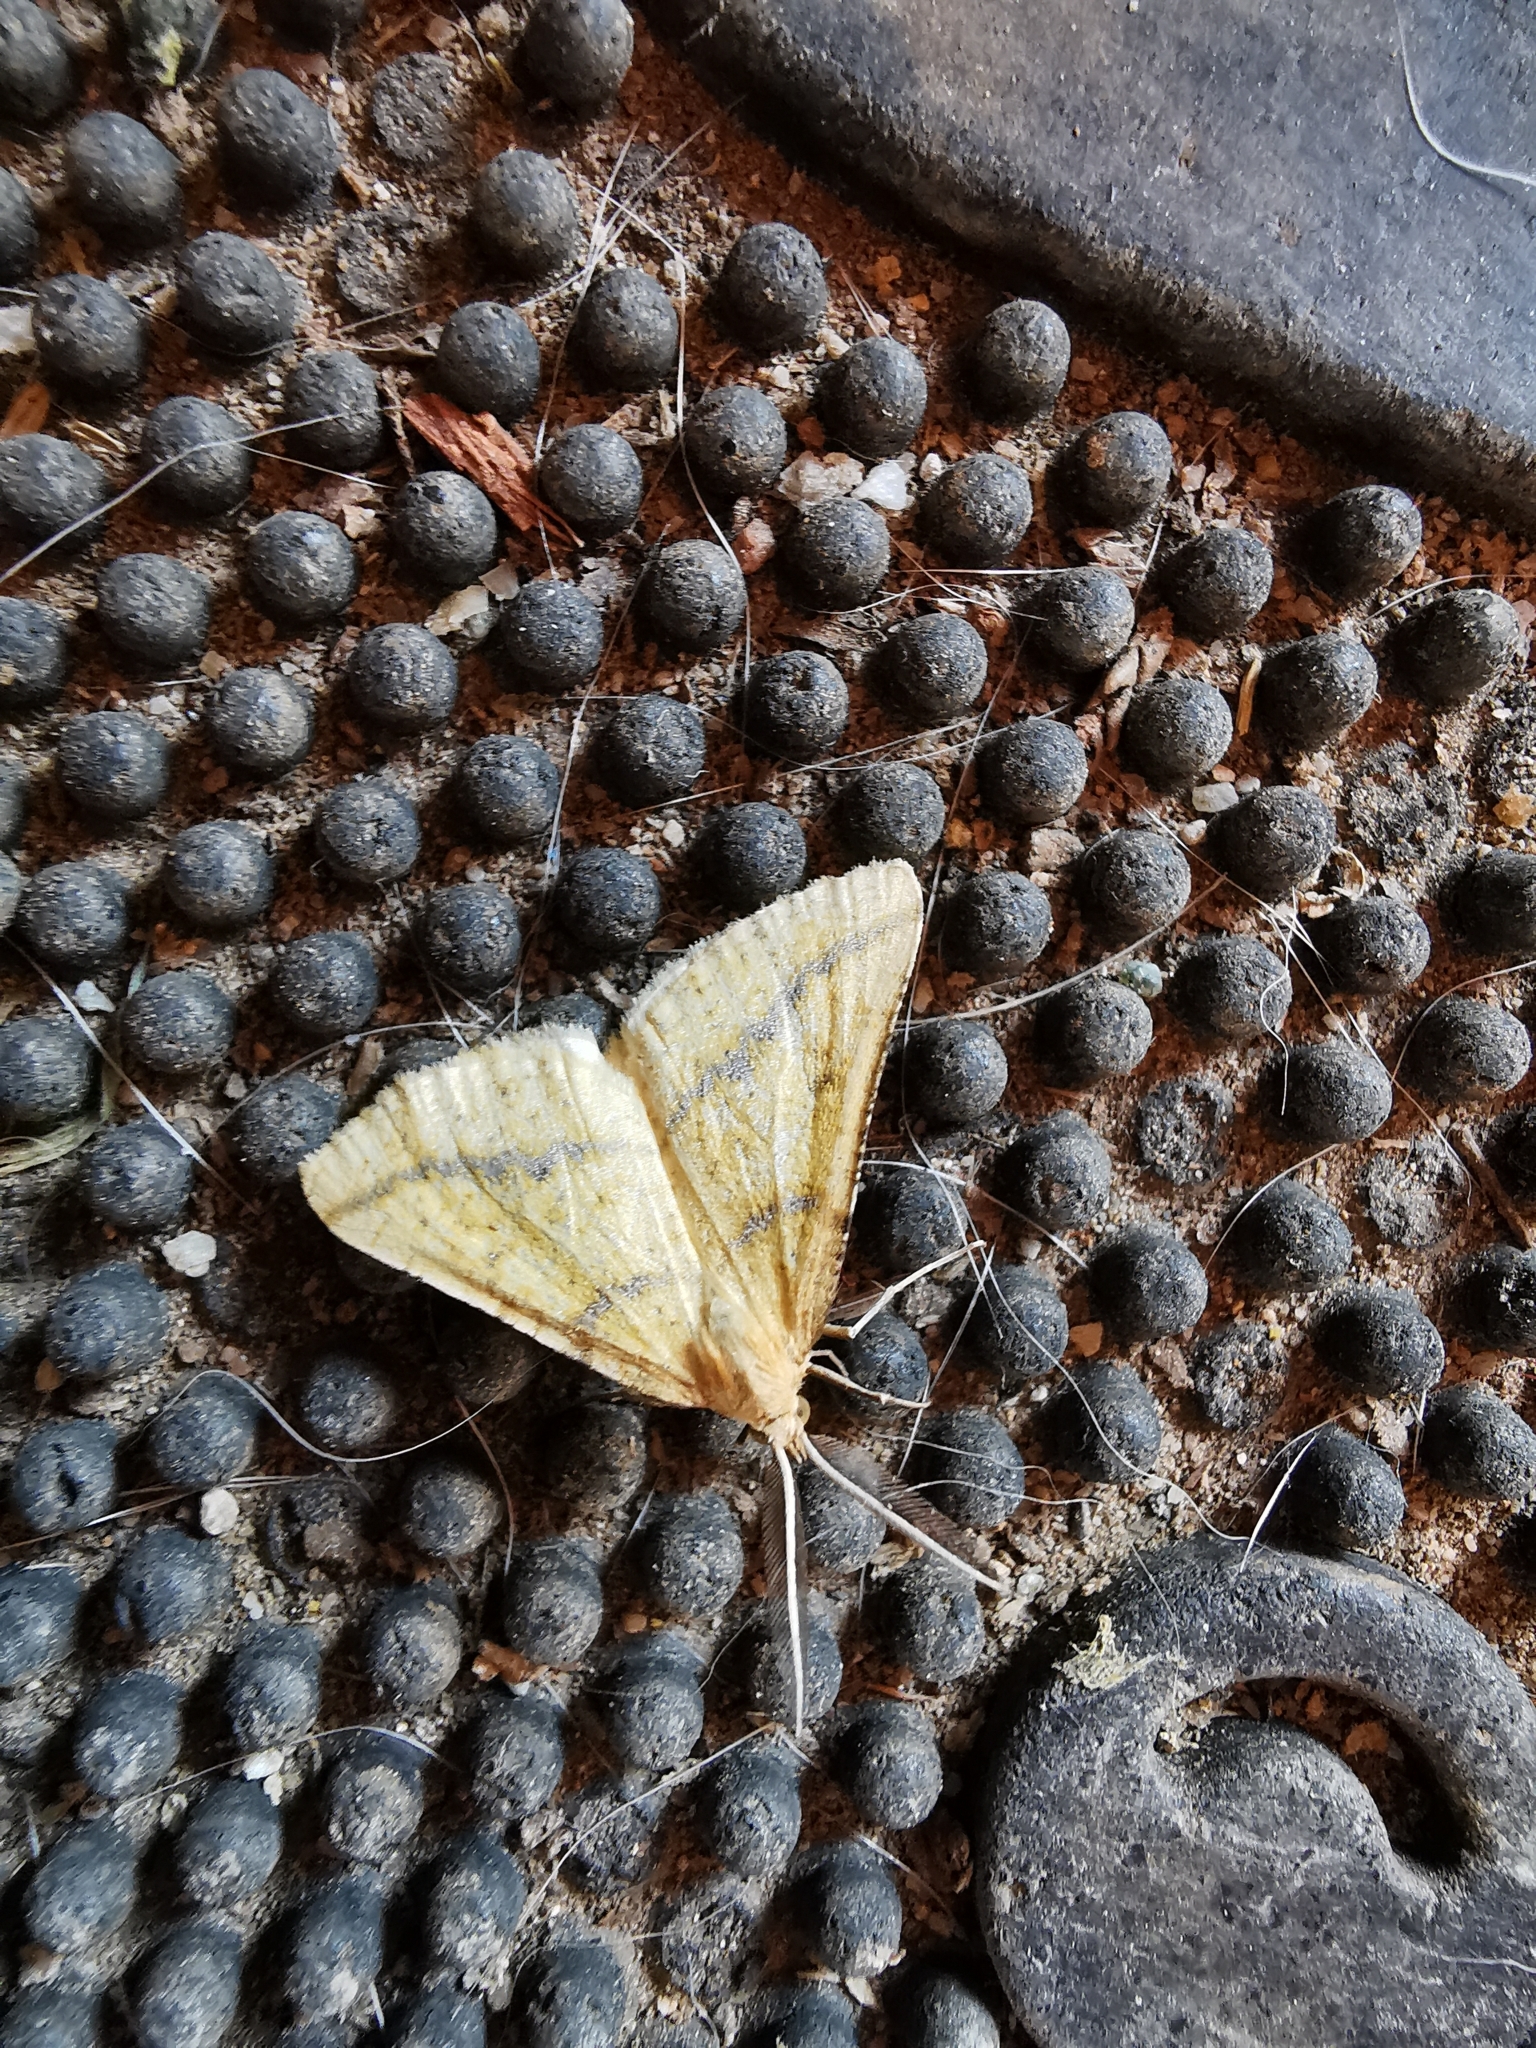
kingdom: Animalia
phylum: Arthropoda
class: Insecta
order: Lepidoptera
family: Geometridae
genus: Aspitates
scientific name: Aspitates ochrearia
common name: Yellow belle
